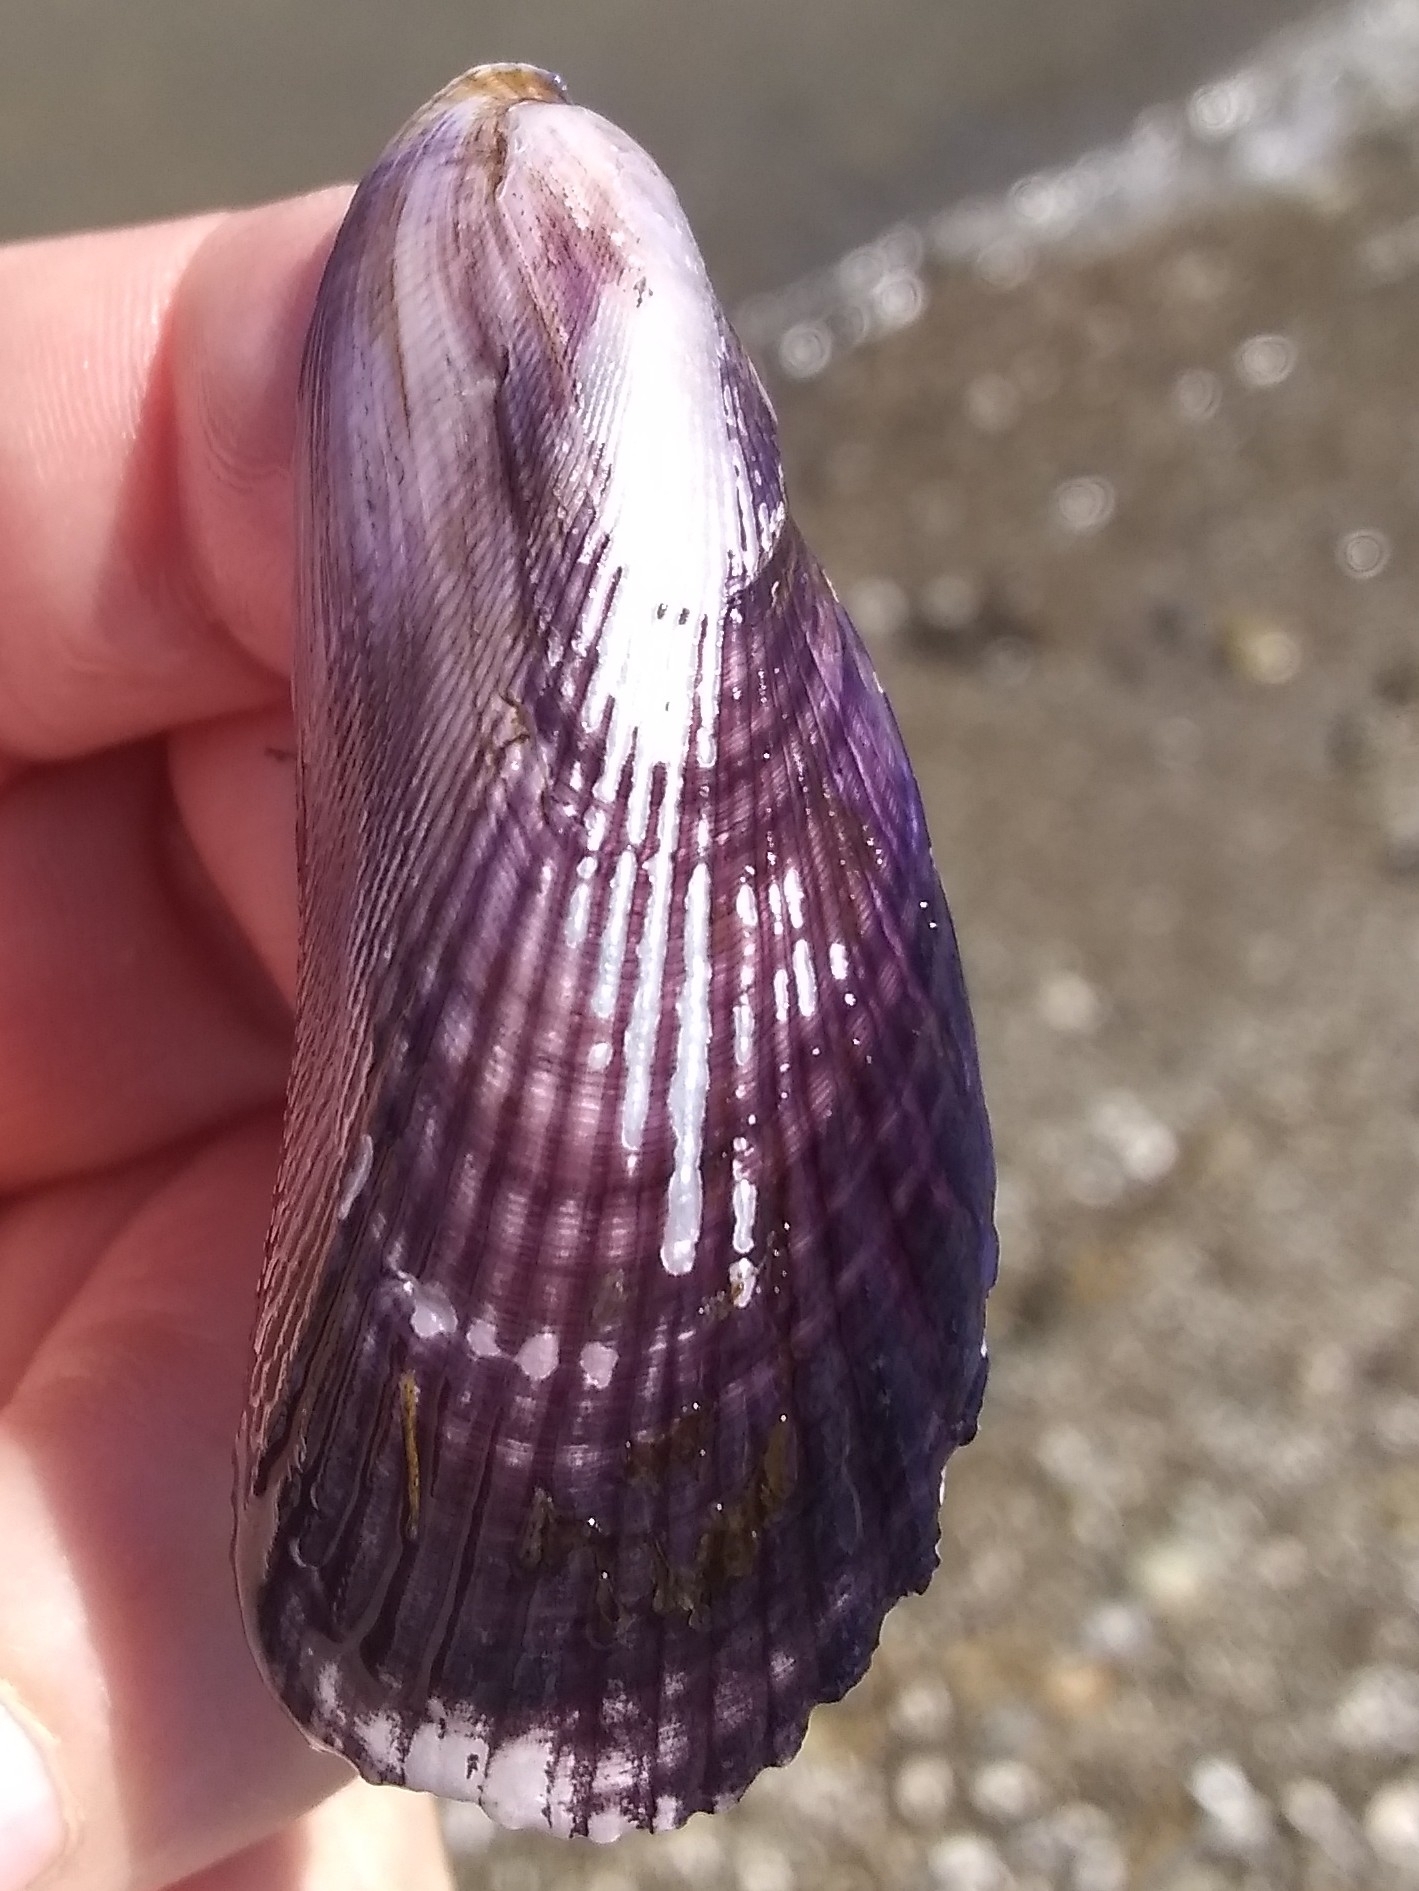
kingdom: Animalia
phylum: Mollusca
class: Bivalvia
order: Mytilida
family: Mytilidae
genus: Geukensia
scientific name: Geukensia demissa
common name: Ribbed mussel
